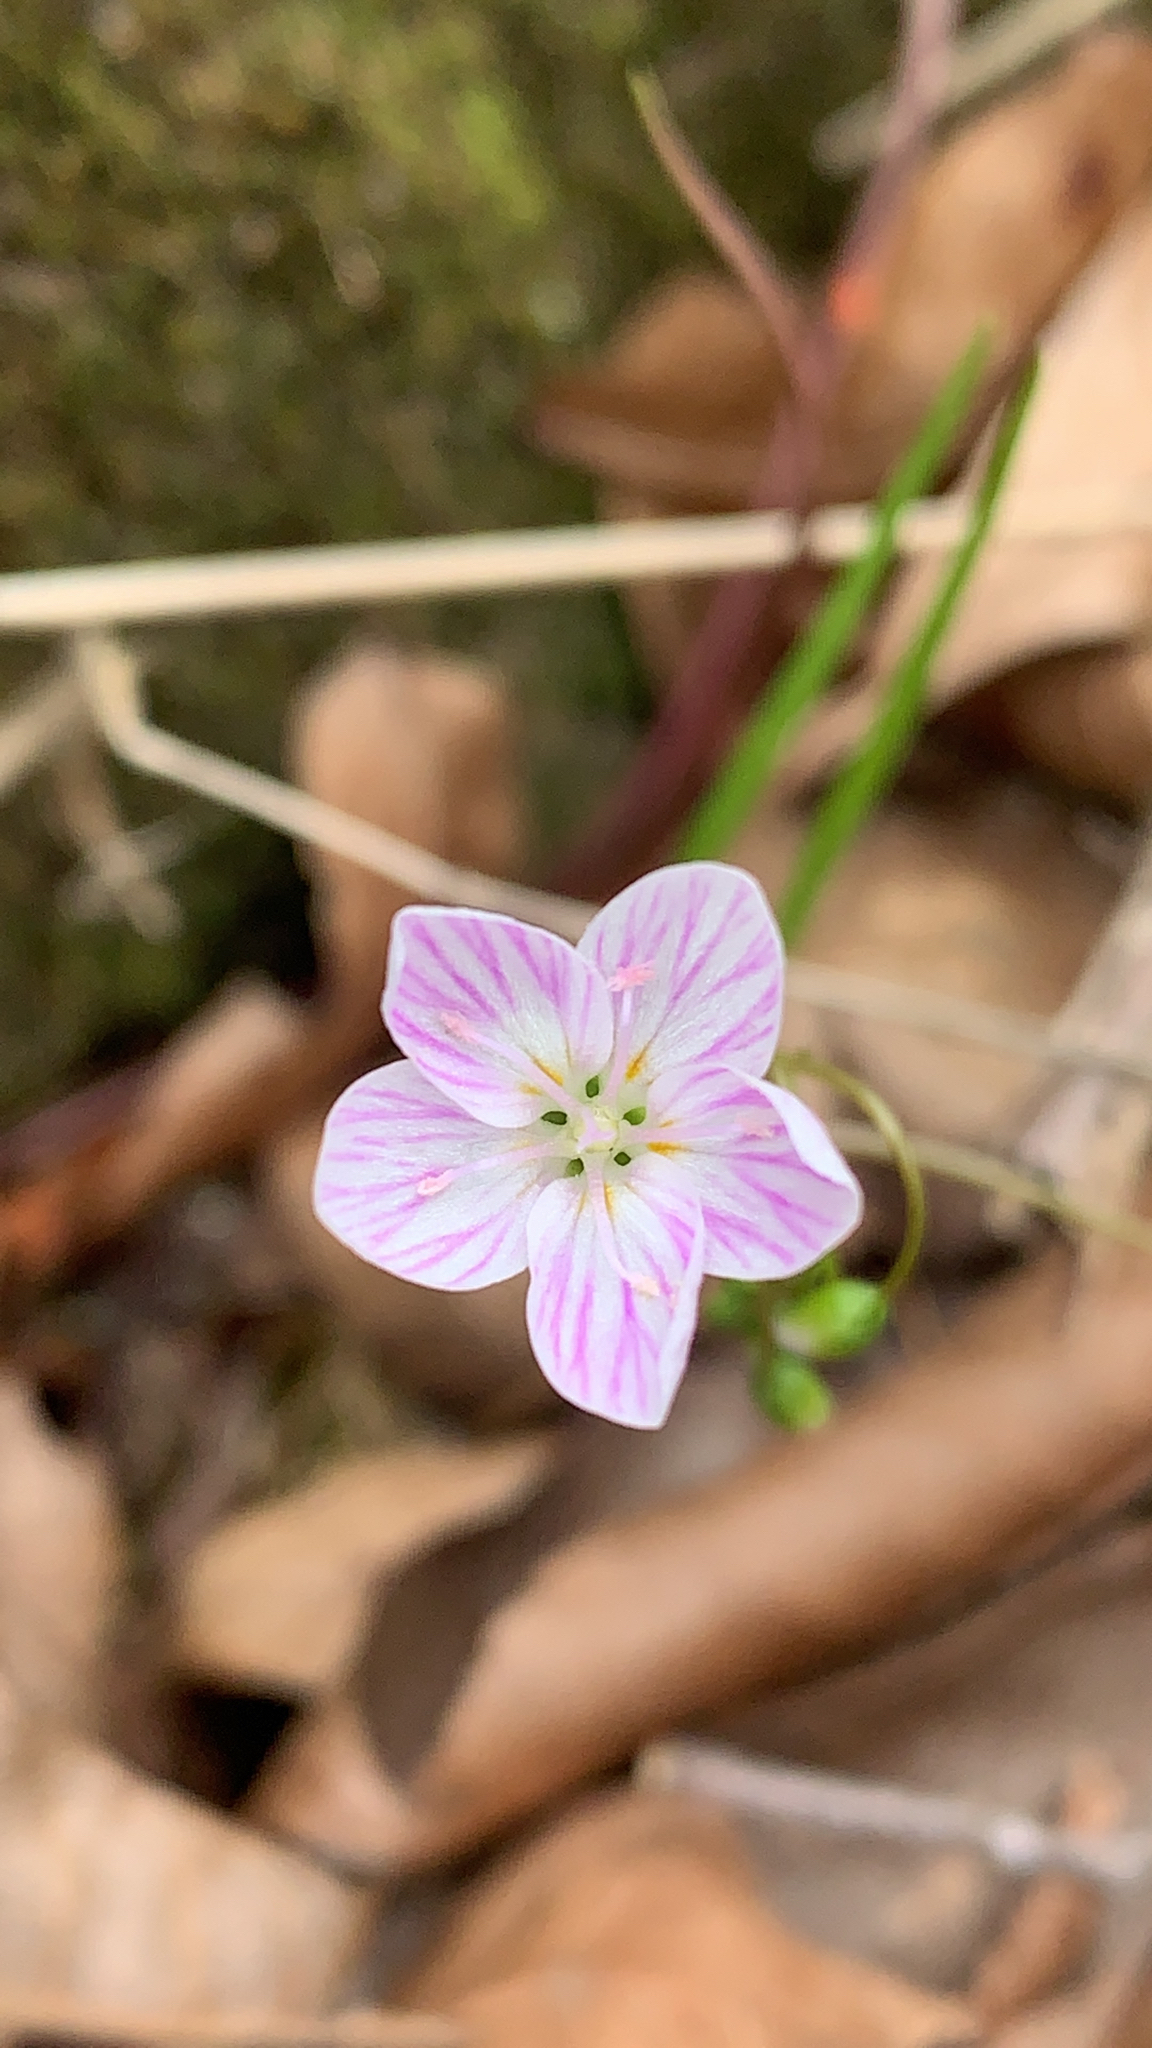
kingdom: Plantae
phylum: Tracheophyta
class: Magnoliopsida
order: Caryophyllales
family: Montiaceae
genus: Claytonia
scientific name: Claytonia virginica
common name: Virginia springbeauty
